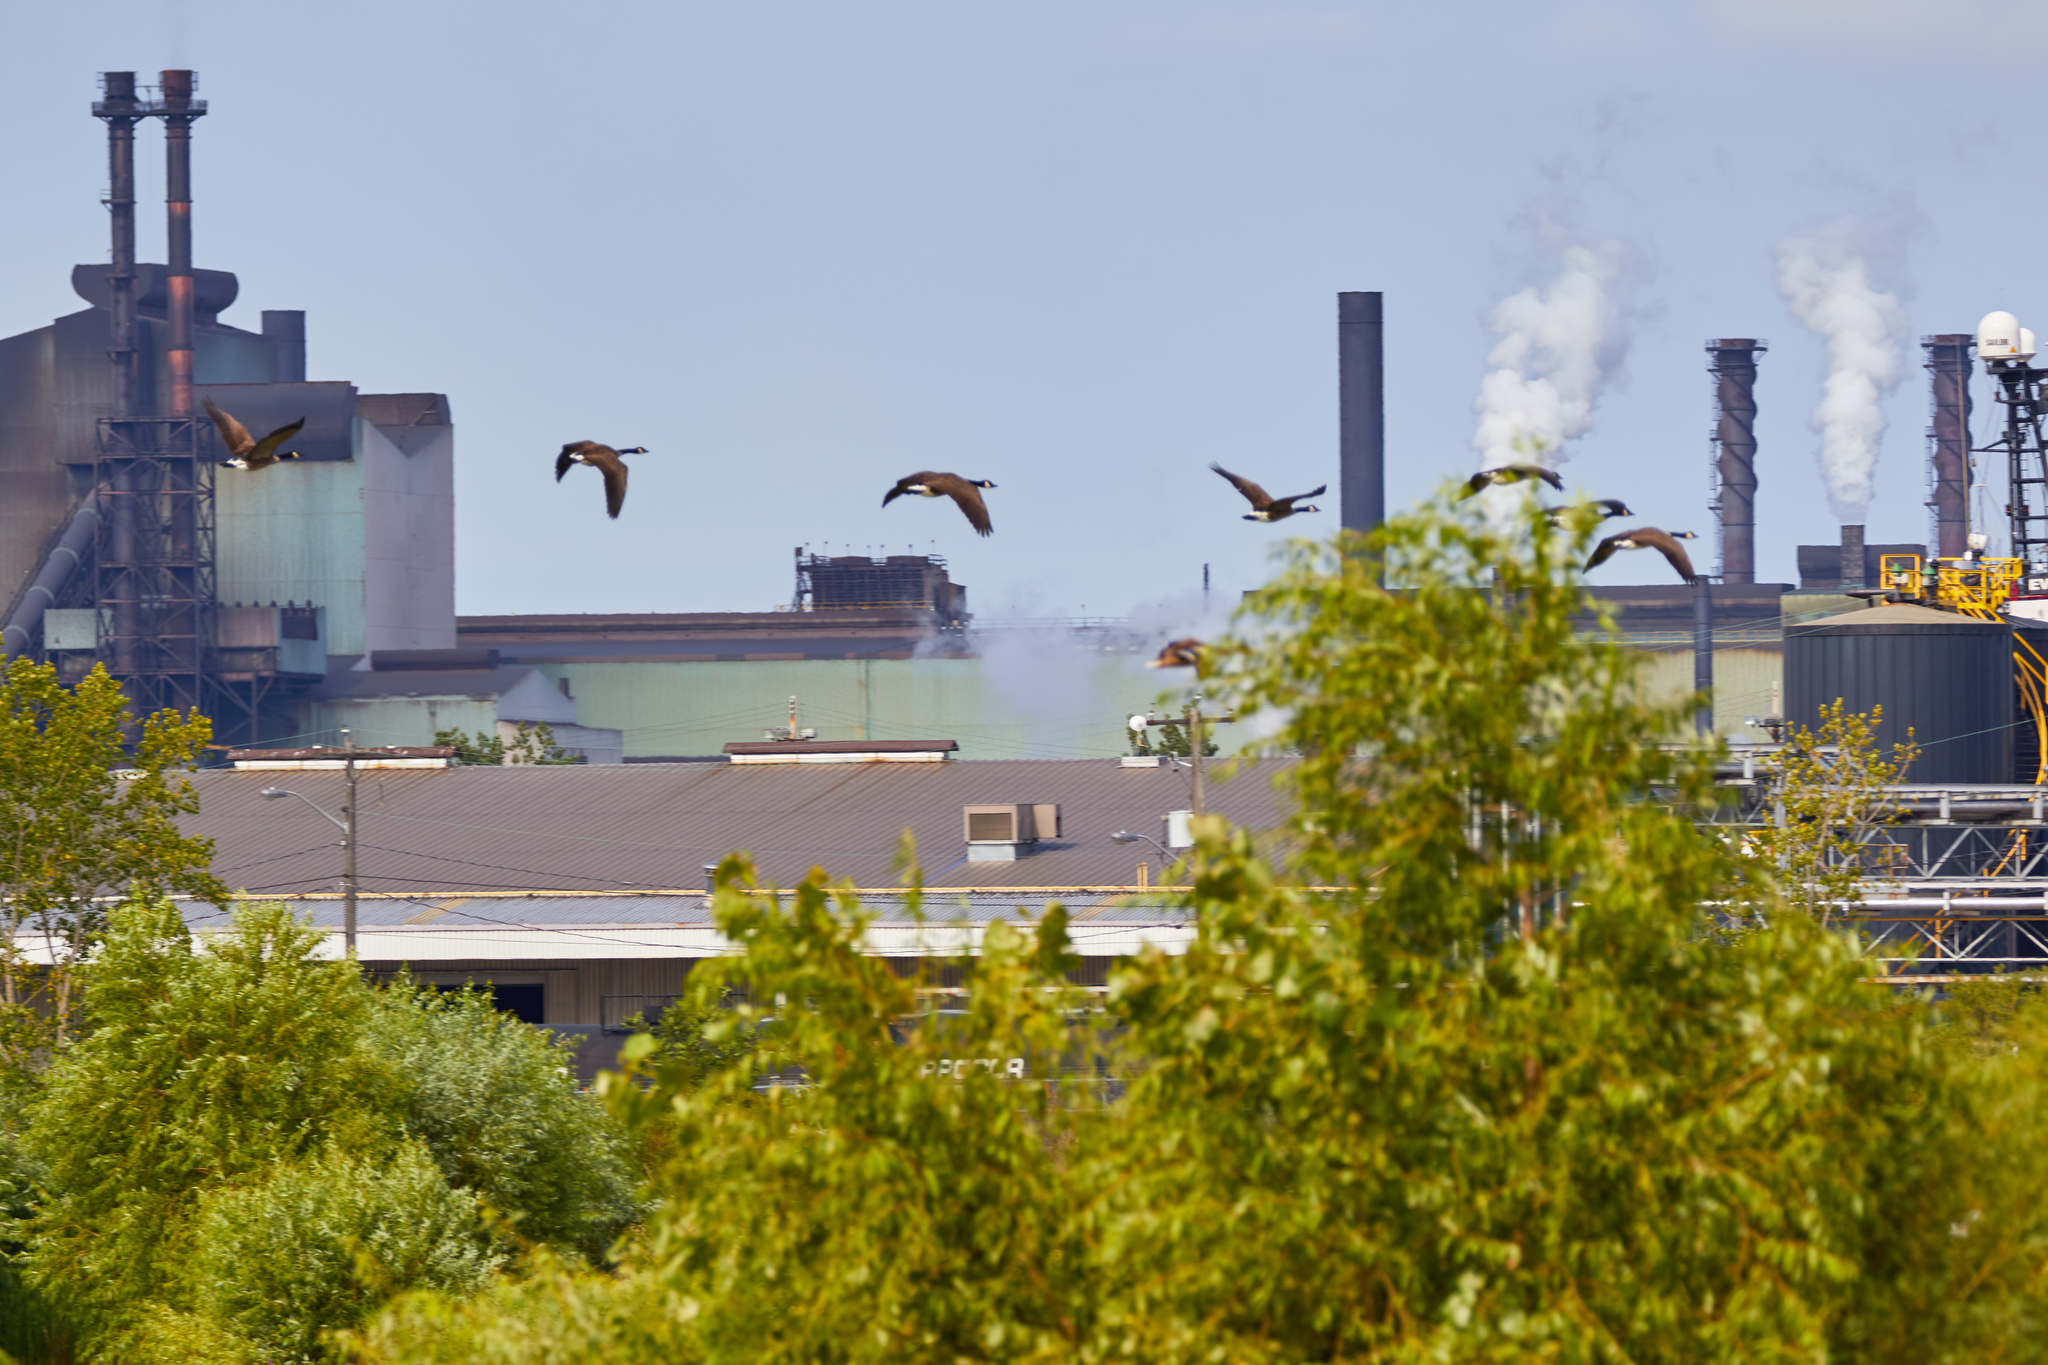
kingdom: Animalia
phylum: Chordata
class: Aves
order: Anseriformes
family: Anatidae
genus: Branta
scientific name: Branta canadensis
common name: Canada goose
